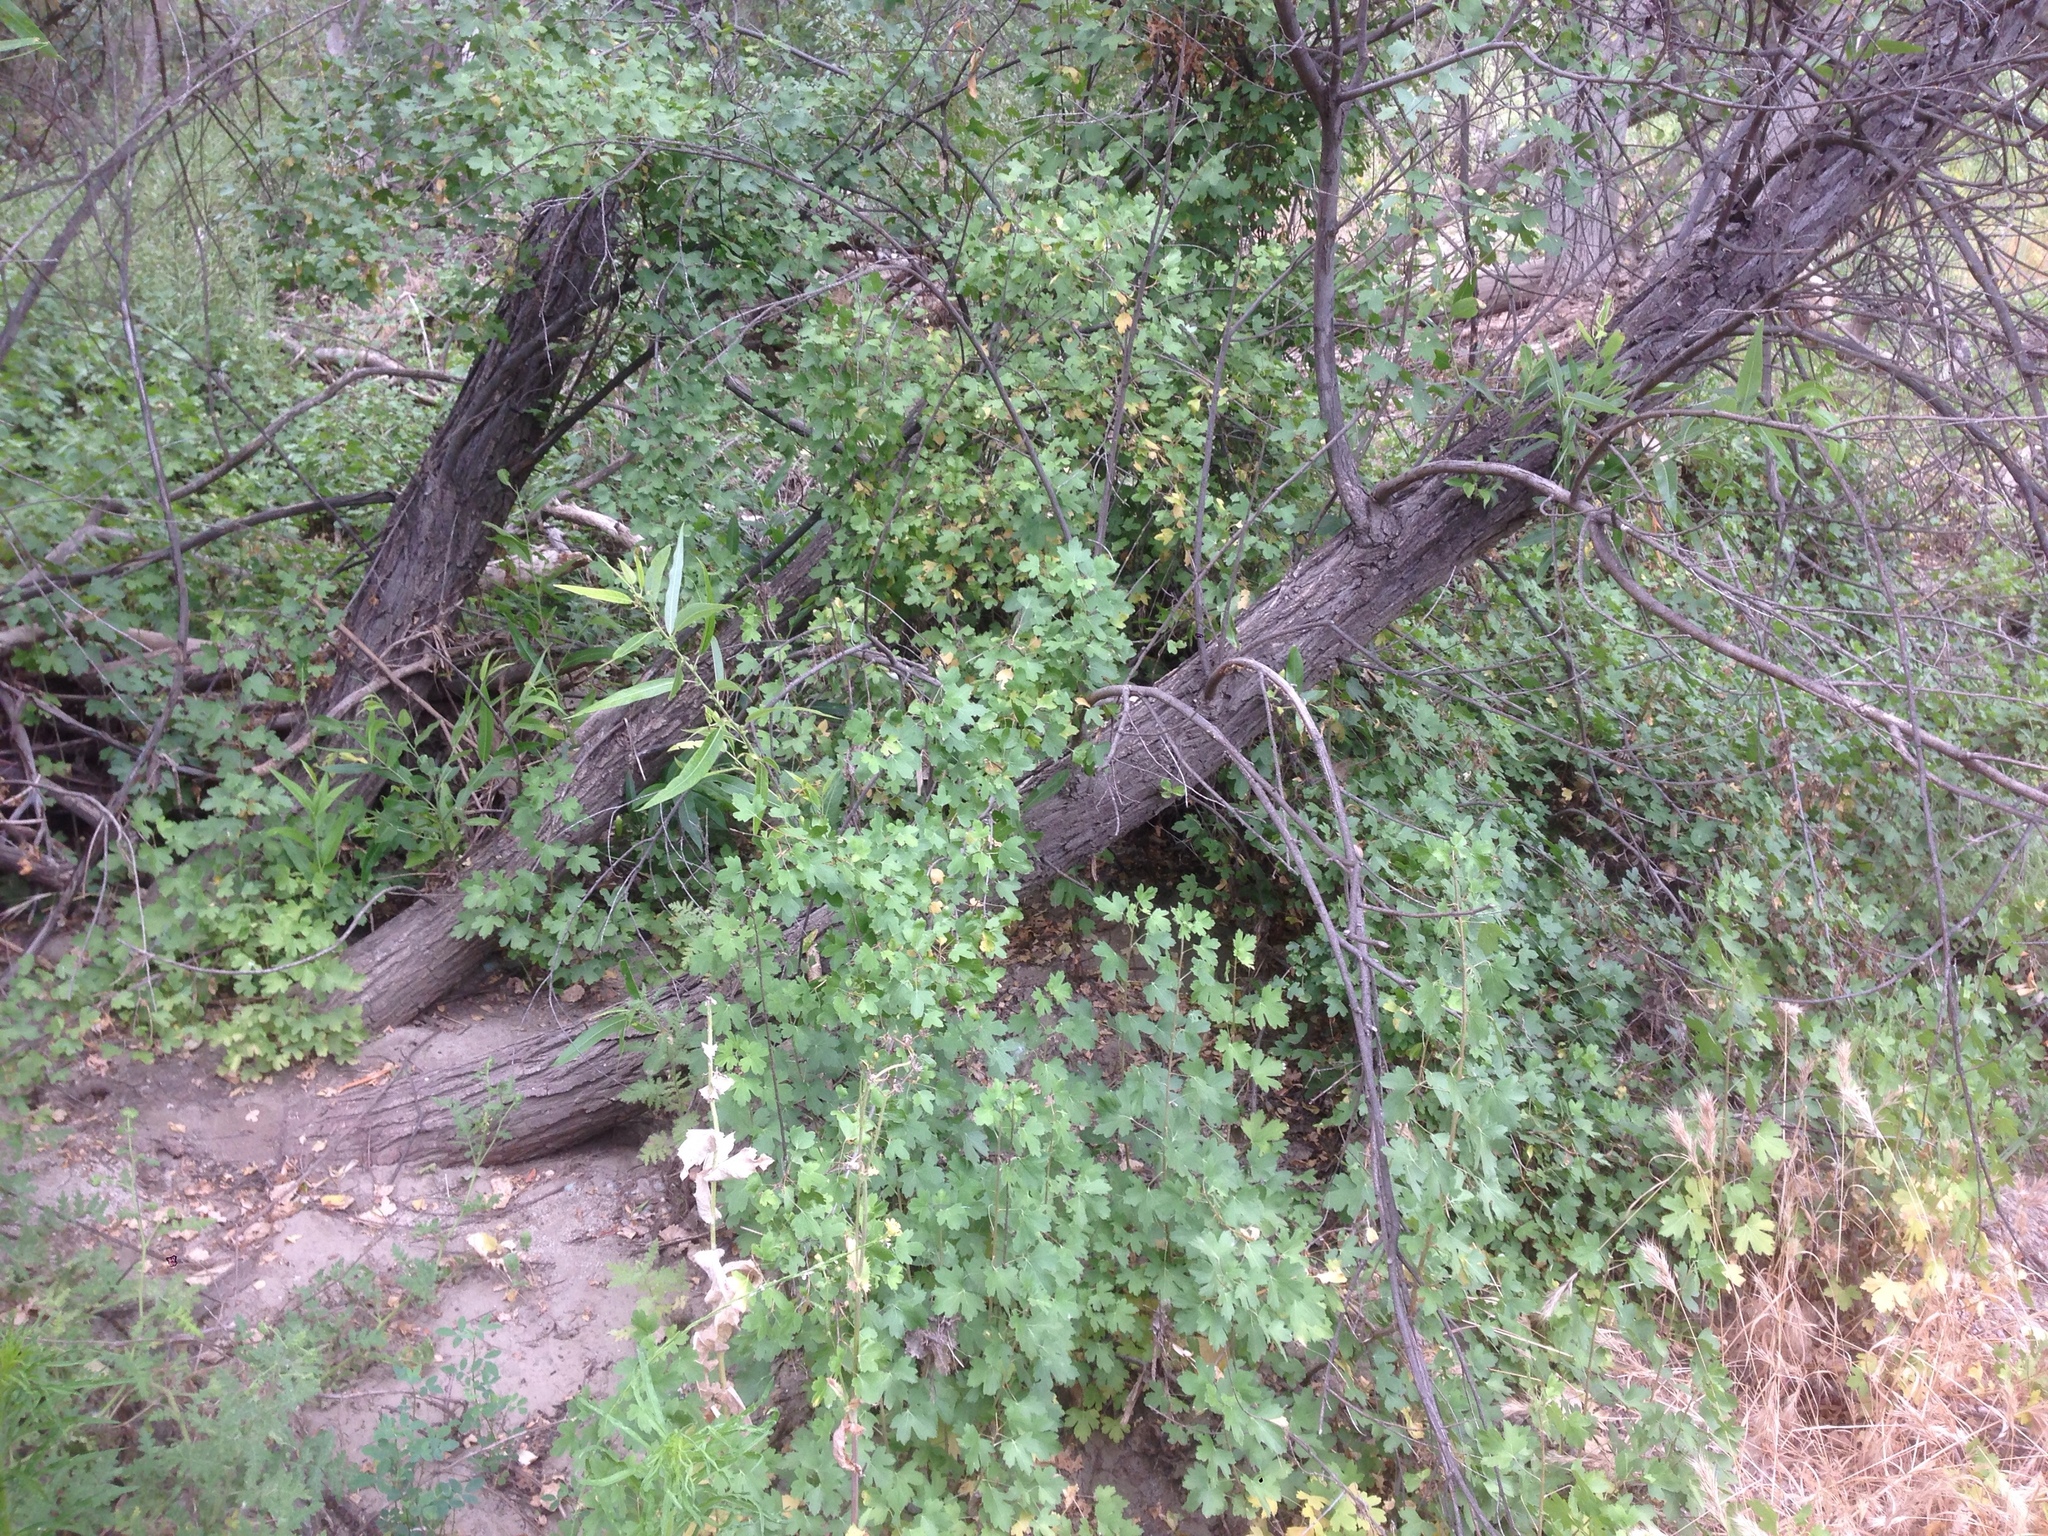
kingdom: Plantae
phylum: Tracheophyta
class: Magnoliopsida
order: Saxifragales
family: Grossulariaceae
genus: Ribes
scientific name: Ribes aureum
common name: Golden currant
